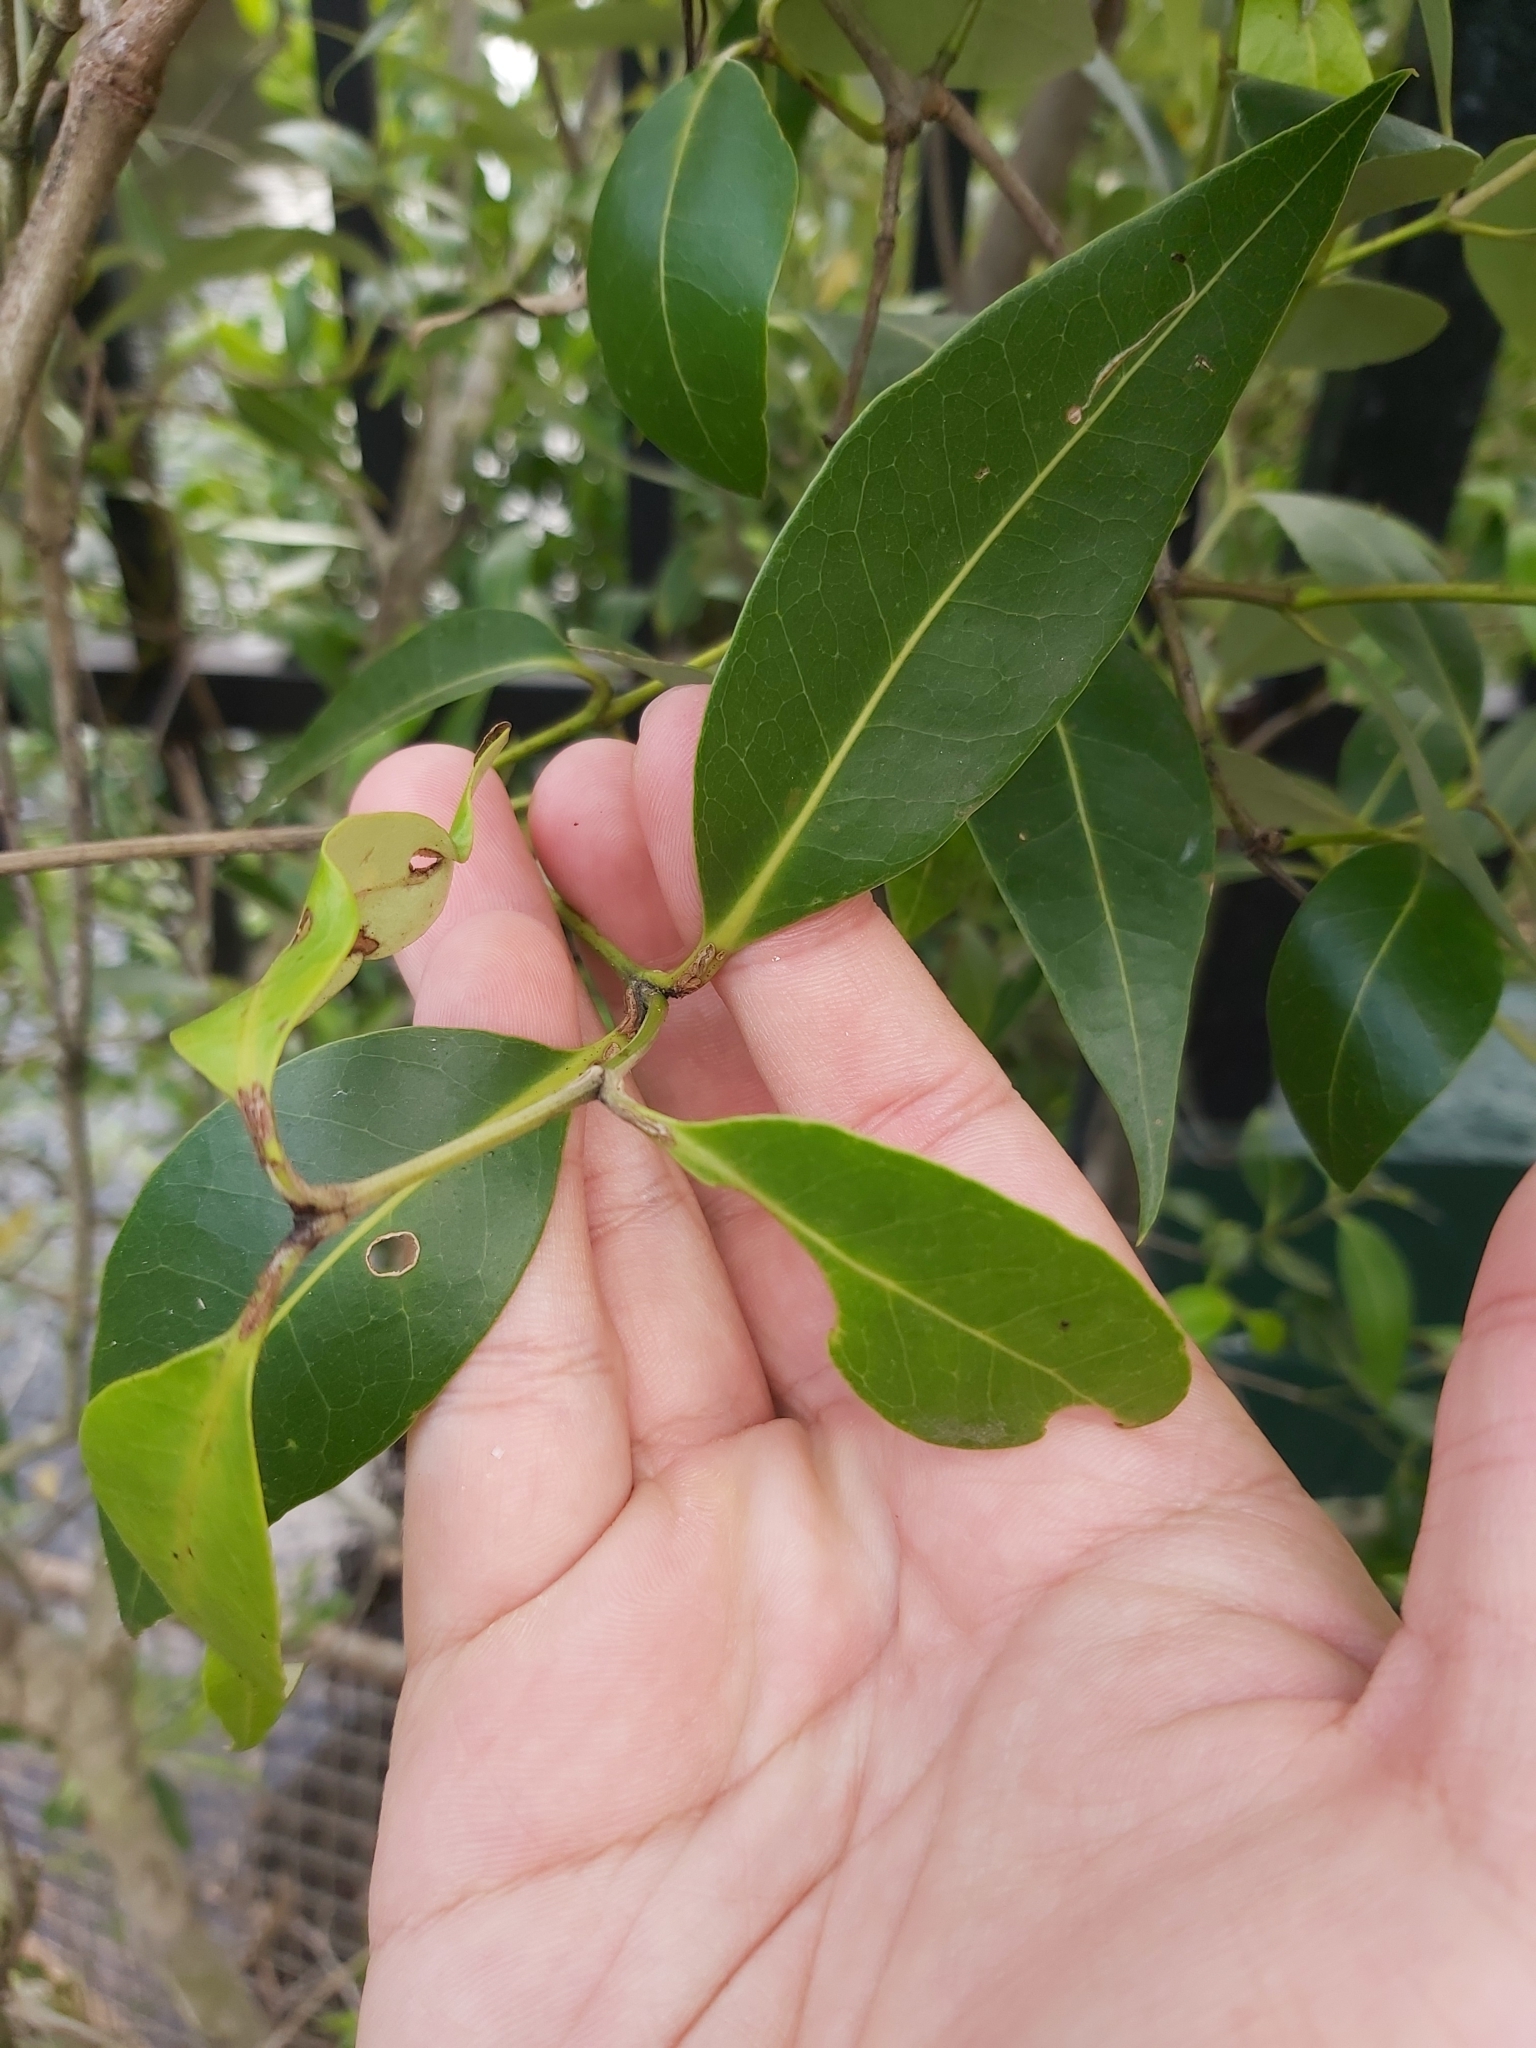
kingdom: Plantae
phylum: Tracheophyta
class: Magnoliopsida
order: Lamiales
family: Acanthaceae
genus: Avicennia
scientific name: Avicennia marina
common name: Gray mangrove
